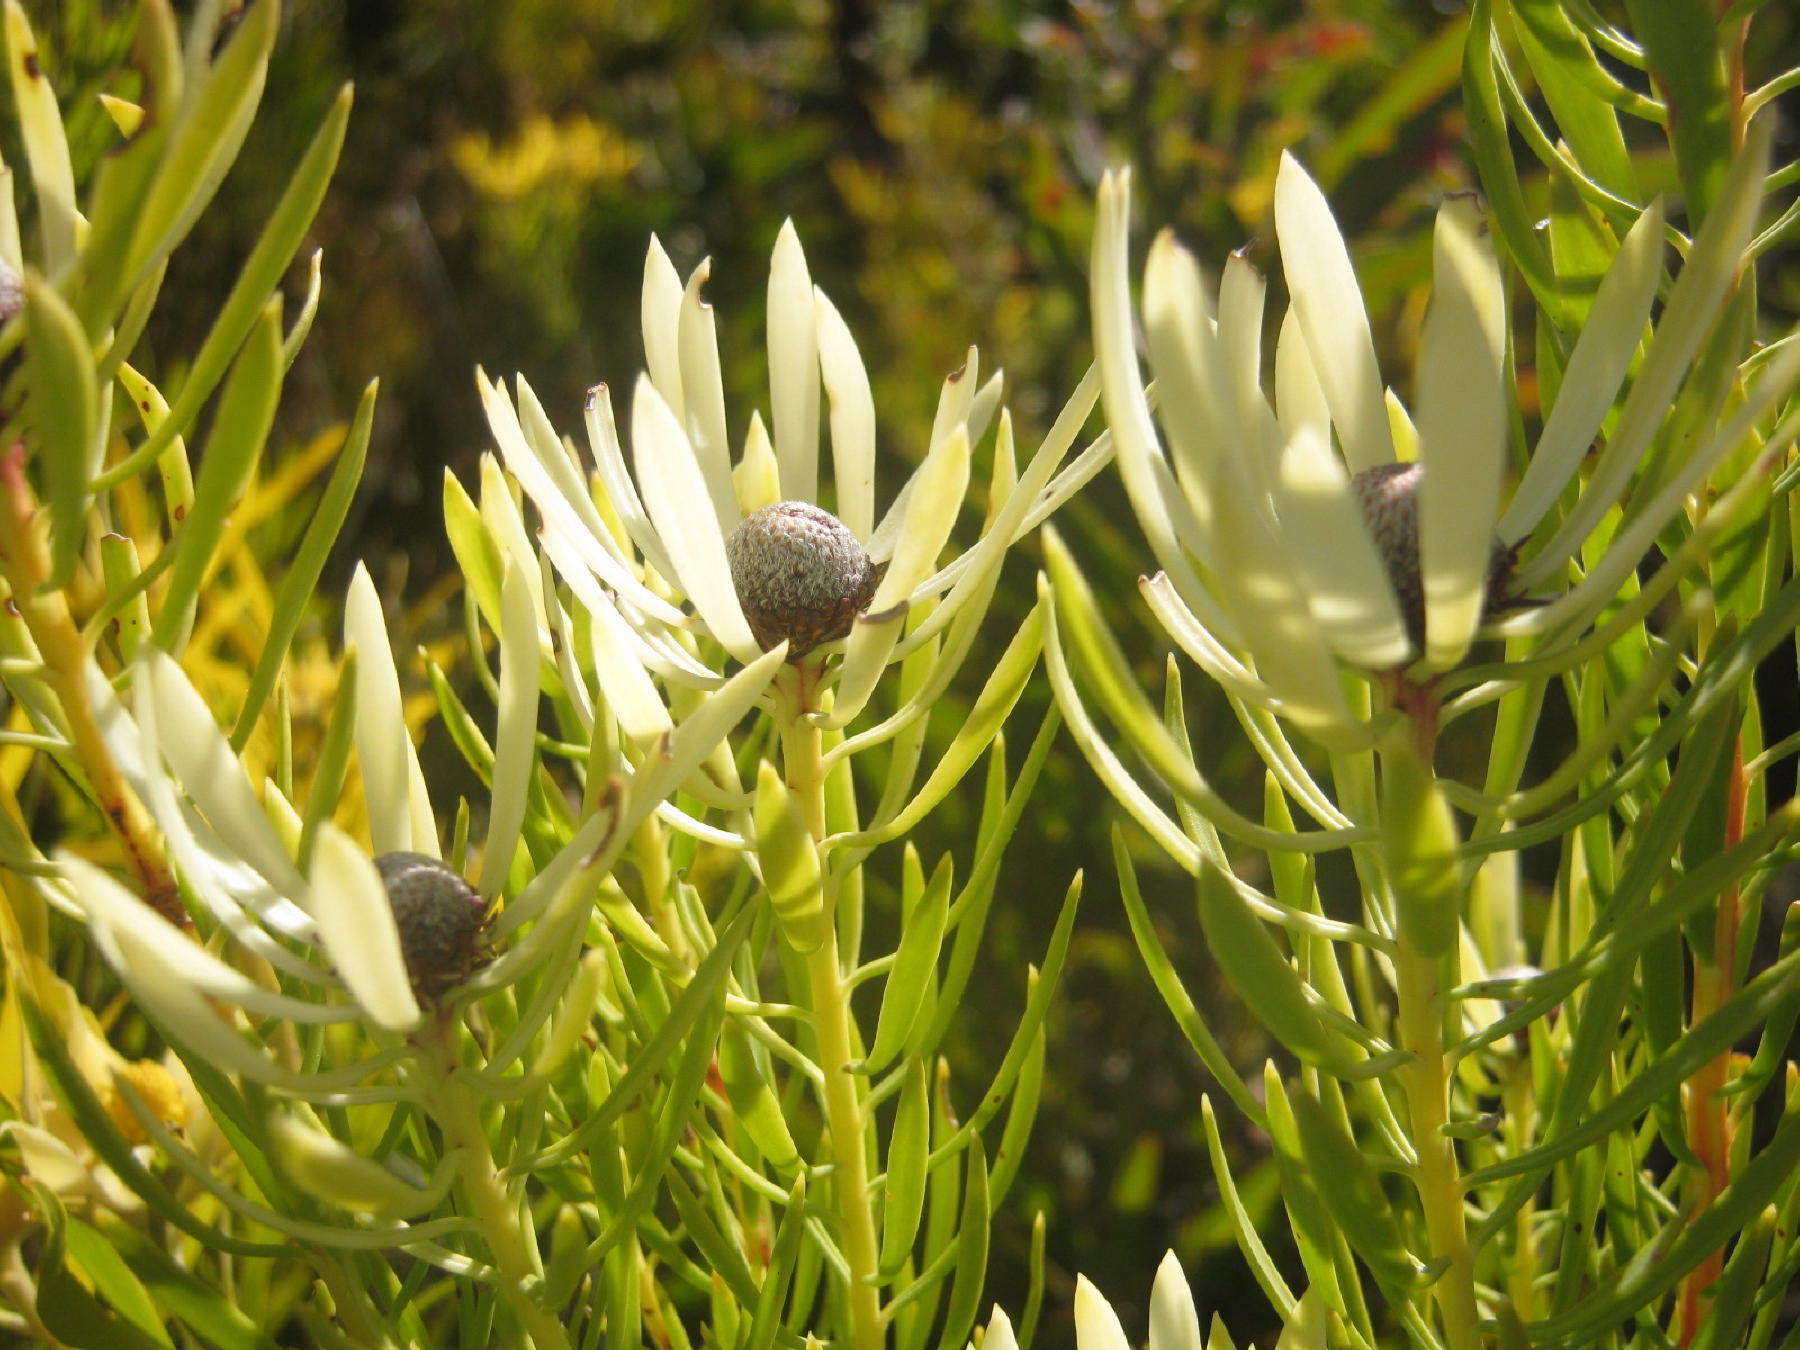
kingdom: Plantae
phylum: Tracheophyta
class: Magnoliopsida
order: Proteales
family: Proteaceae
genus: Leucadendron
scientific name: Leucadendron comosum
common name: Ridge-cone conebush
